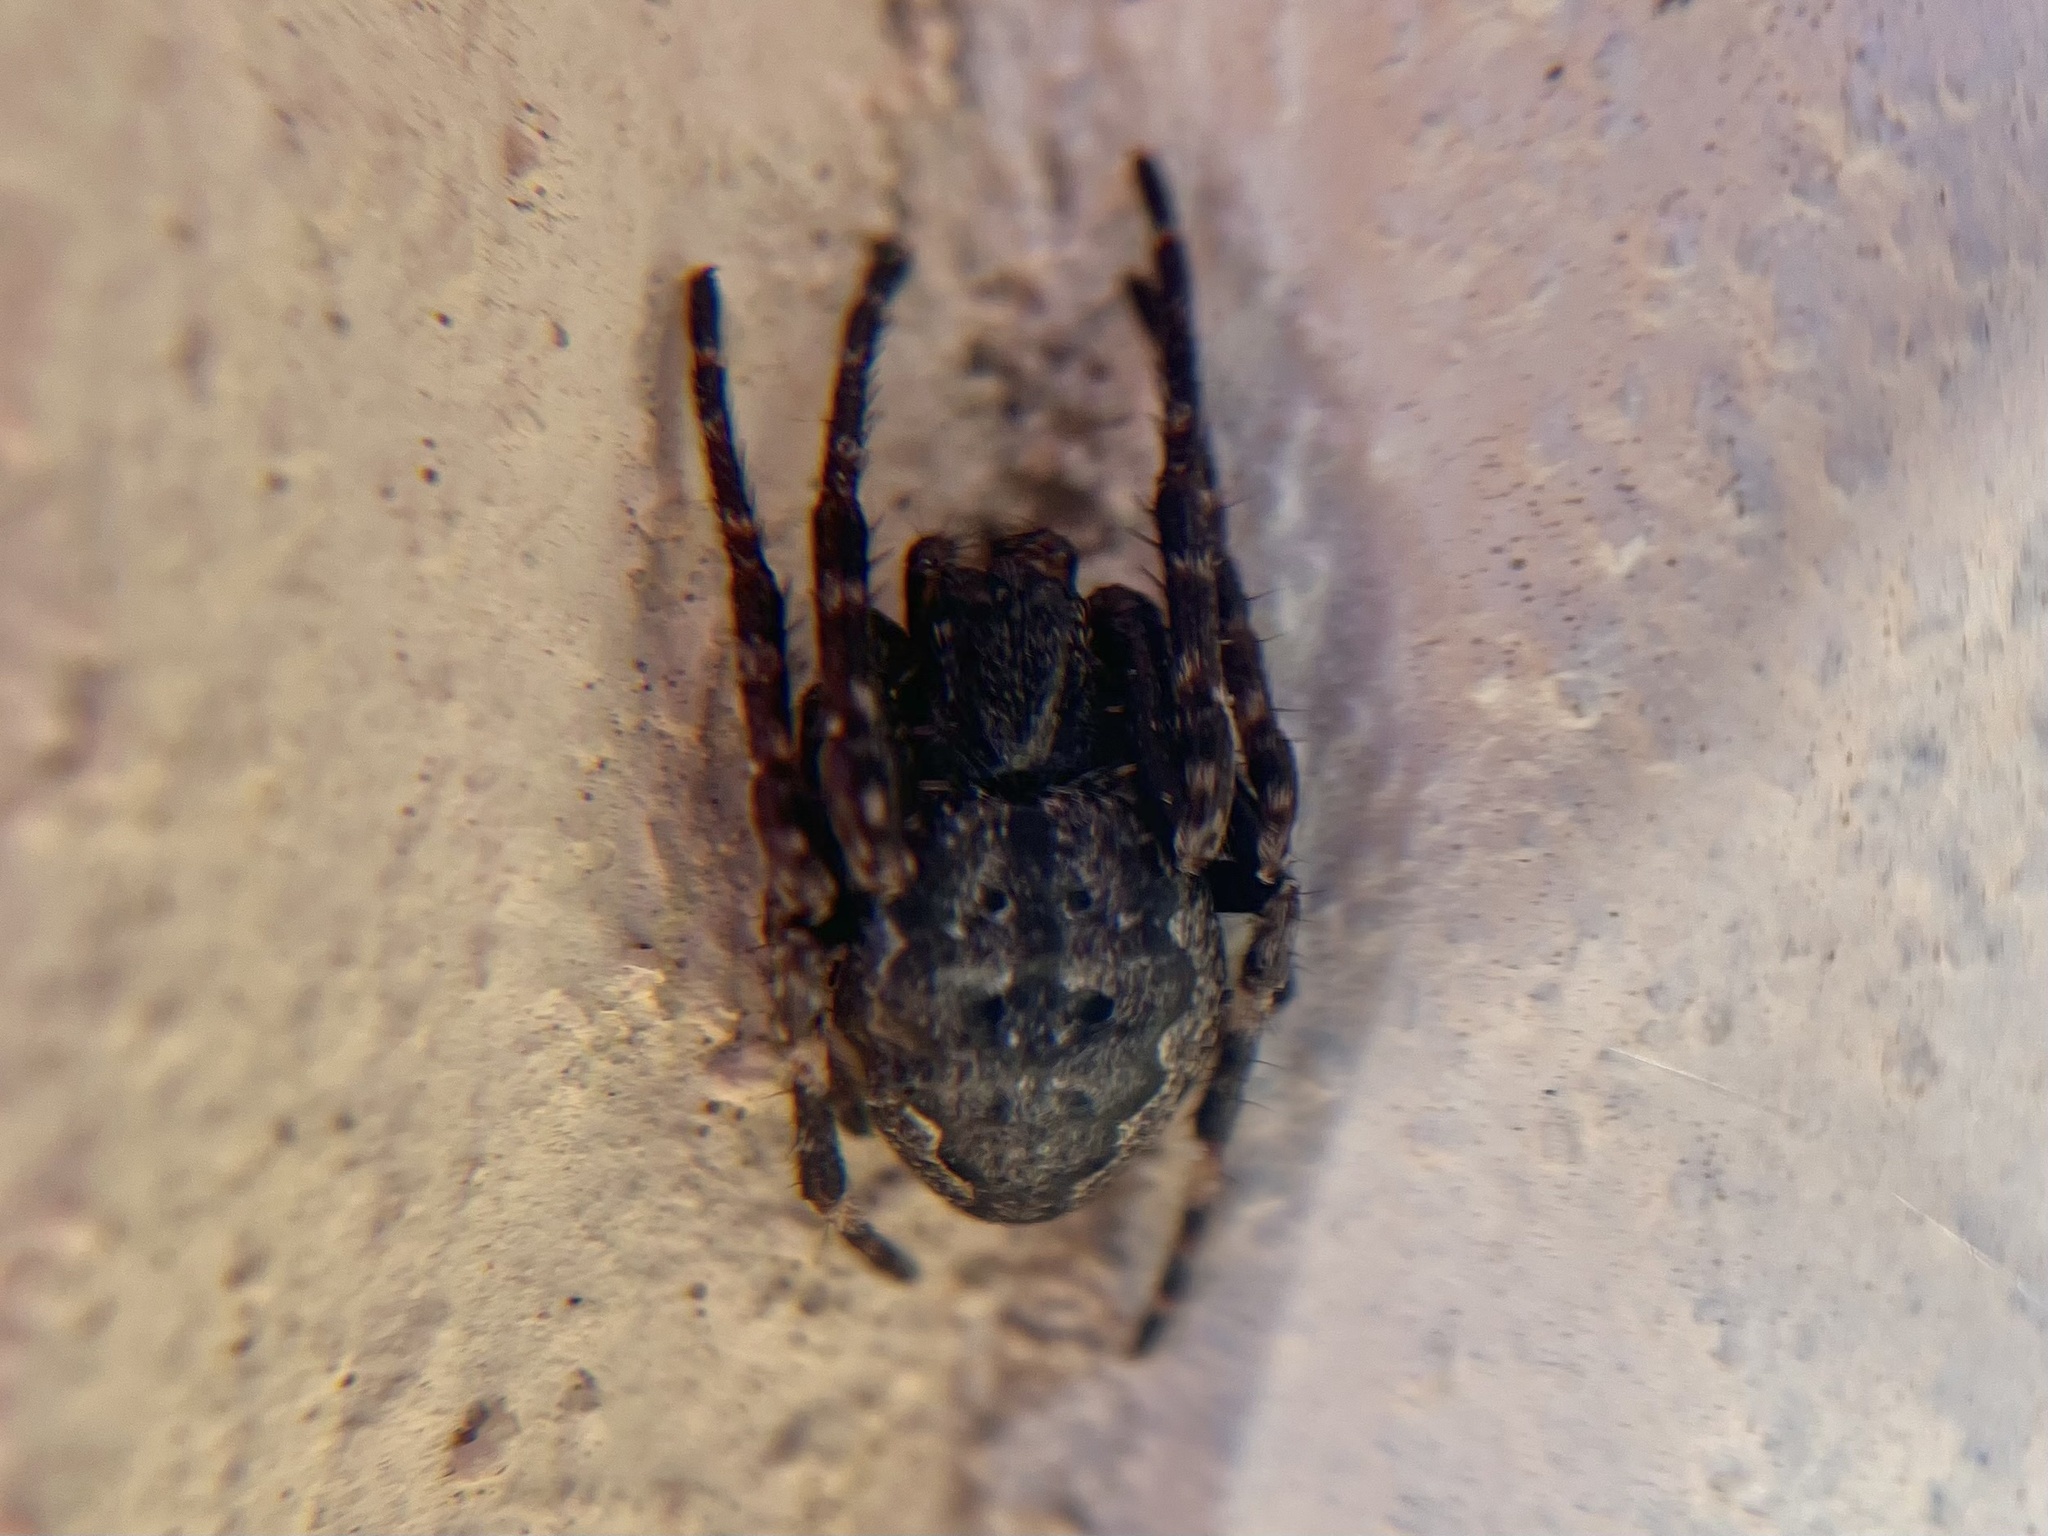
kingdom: Animalia
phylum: Arthropoda
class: Arachnida
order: Araneae
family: Araneidae
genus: Nuctenea
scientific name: Nuctenea umbratica
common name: Toad spider
